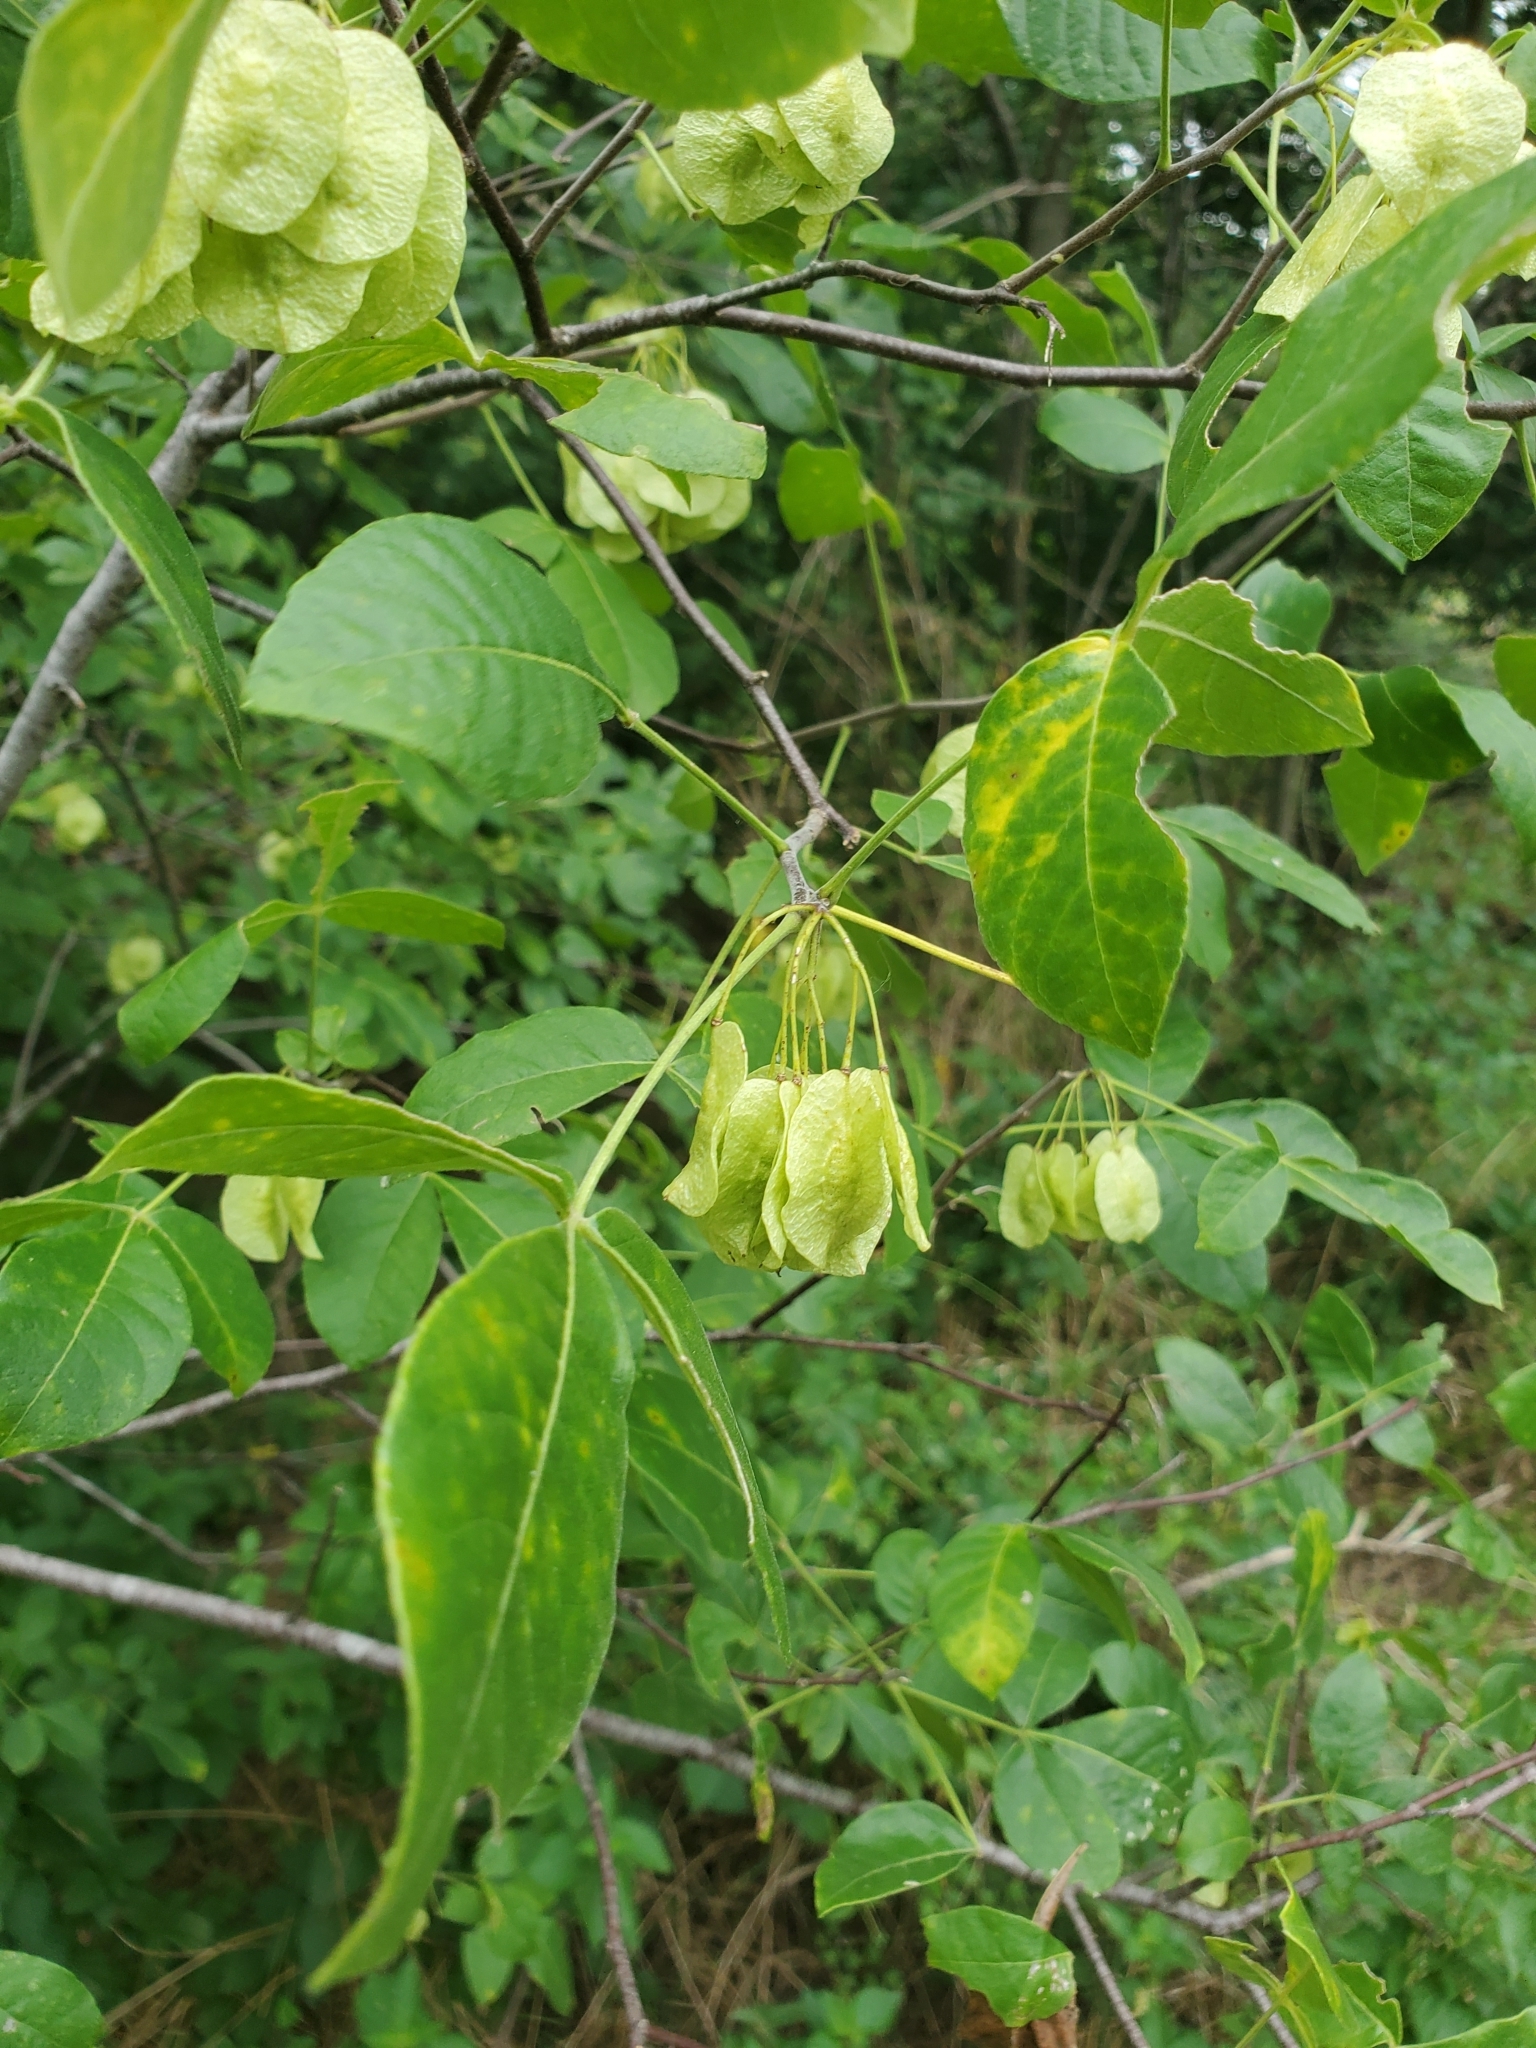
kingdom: Plantae
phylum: Tracheophyta
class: Magnoliopsida
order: Sapindales
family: Rutaceae
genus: Ptelea
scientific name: Ptelea trifoliata
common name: Common hop-tree
